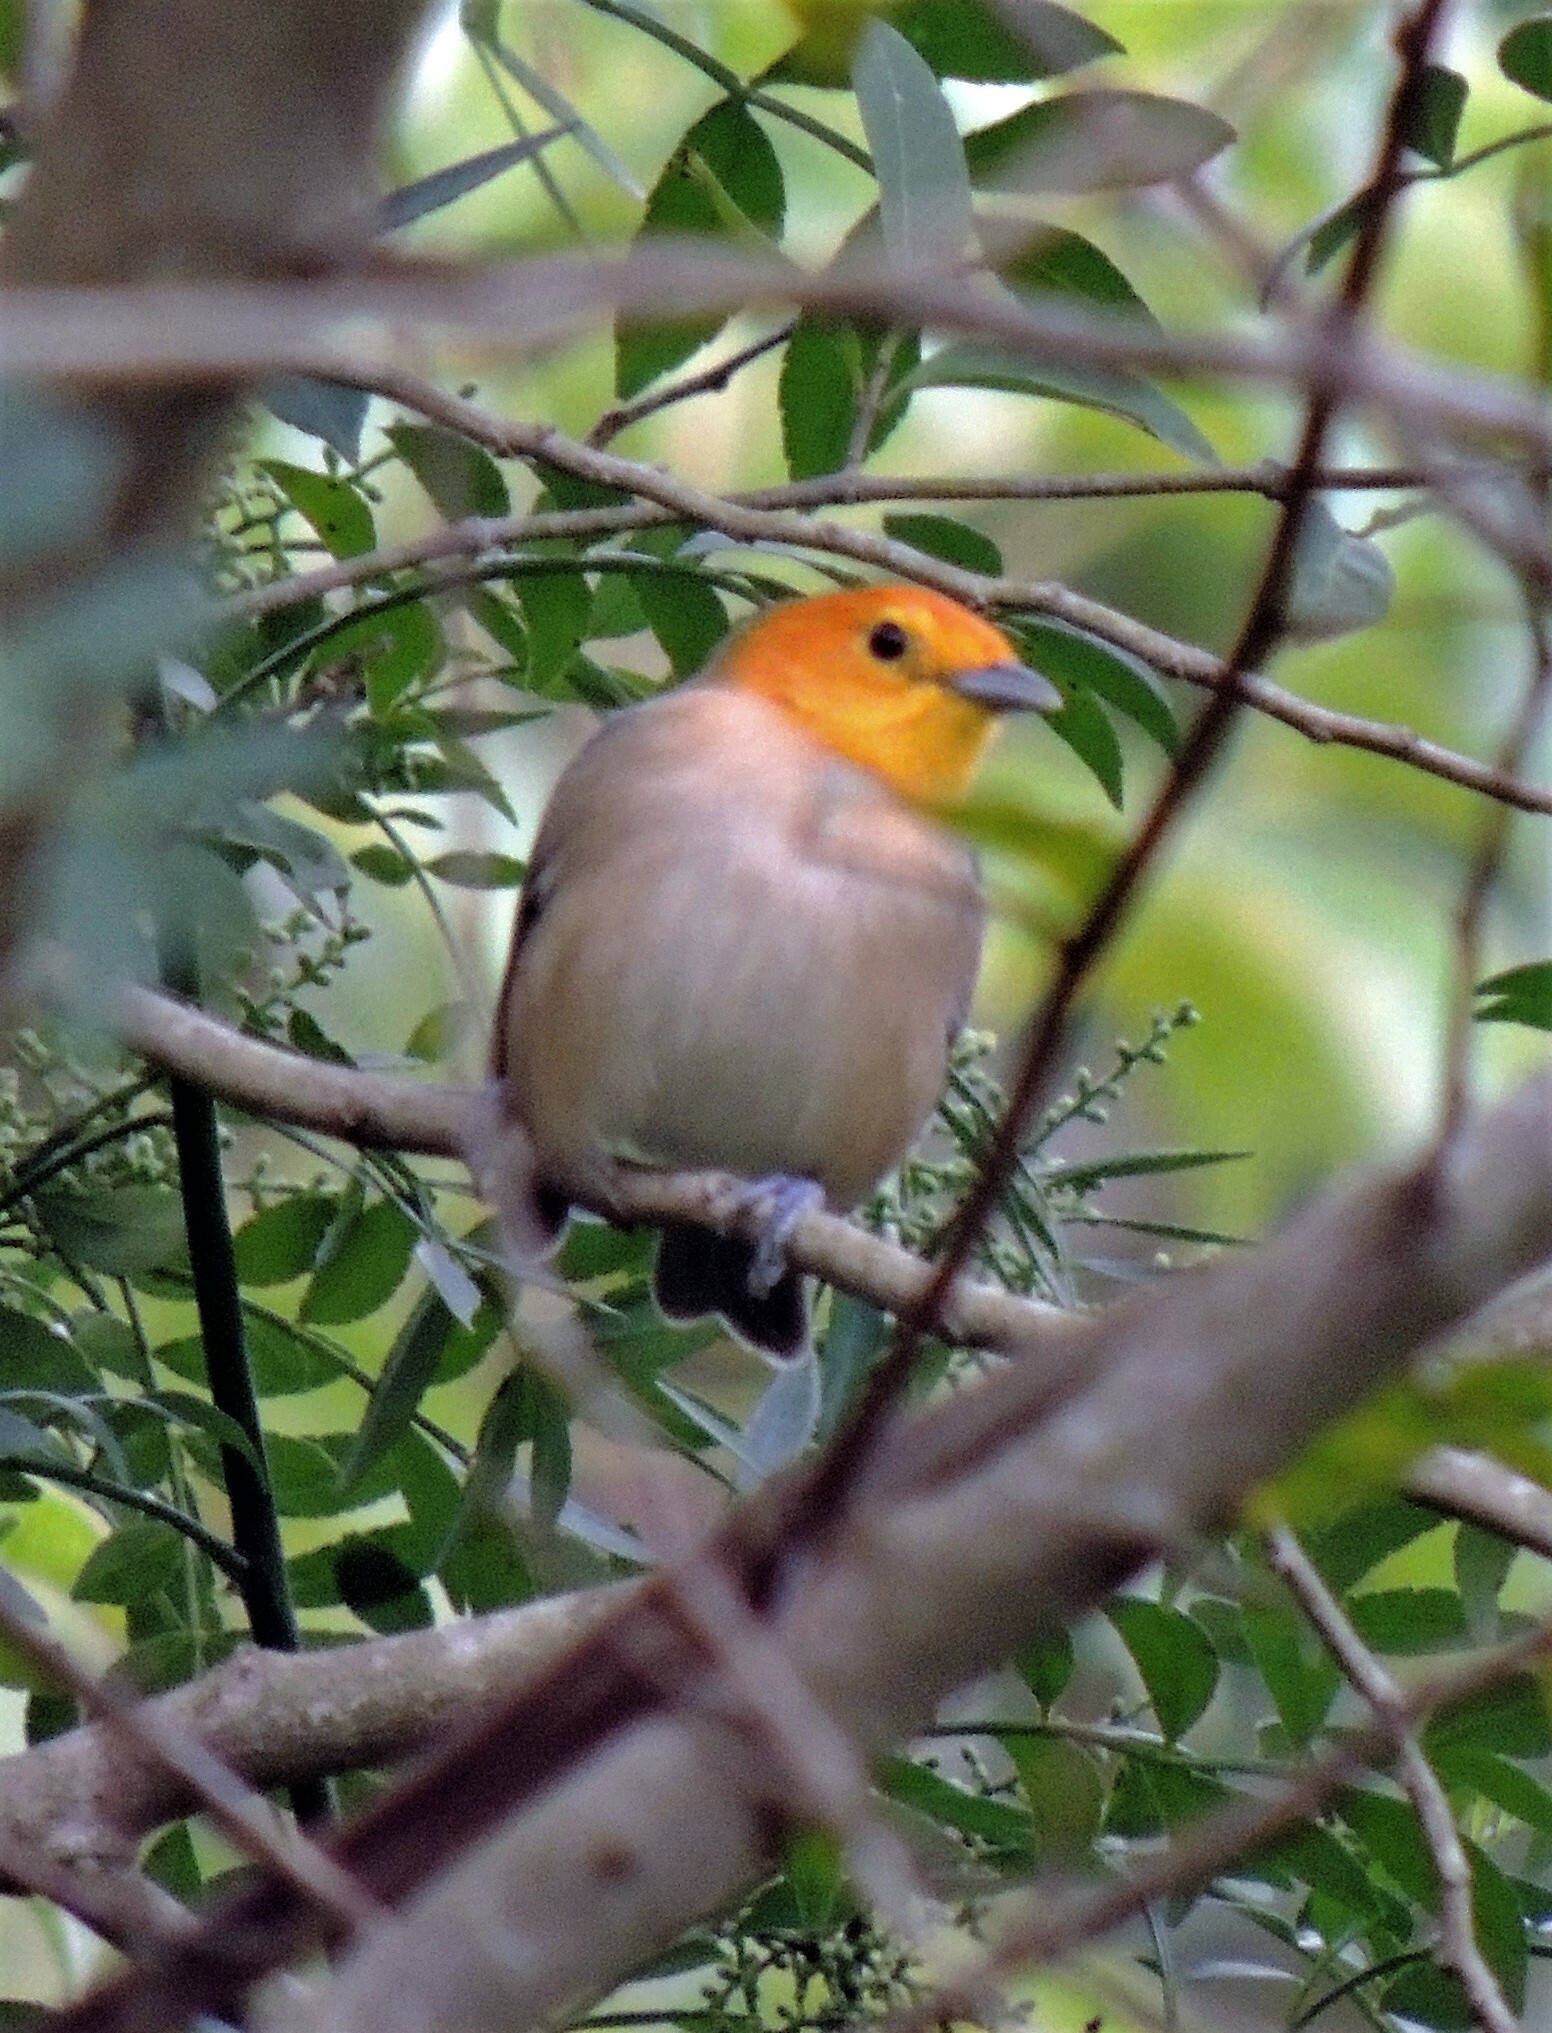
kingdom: Animalia
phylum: Chordata
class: Aves
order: Passeriformes
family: Thraupidae
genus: Thlypopsis
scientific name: Thlypopsis sordida
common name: Orange-headed tanager
